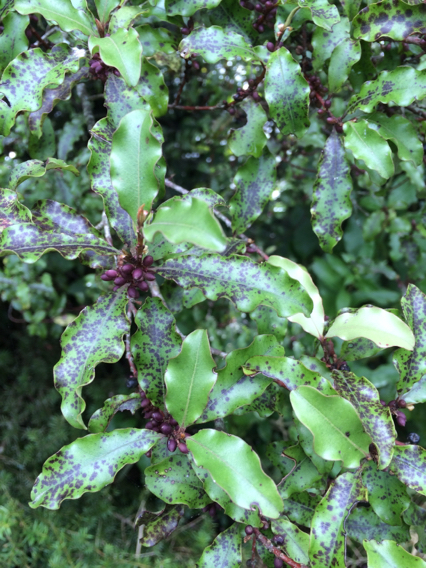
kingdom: Plantae
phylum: Tracheophyta
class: Magnoliopsida
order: Ericales
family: Primulaceae
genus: Myrsine
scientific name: Myrsine australis
